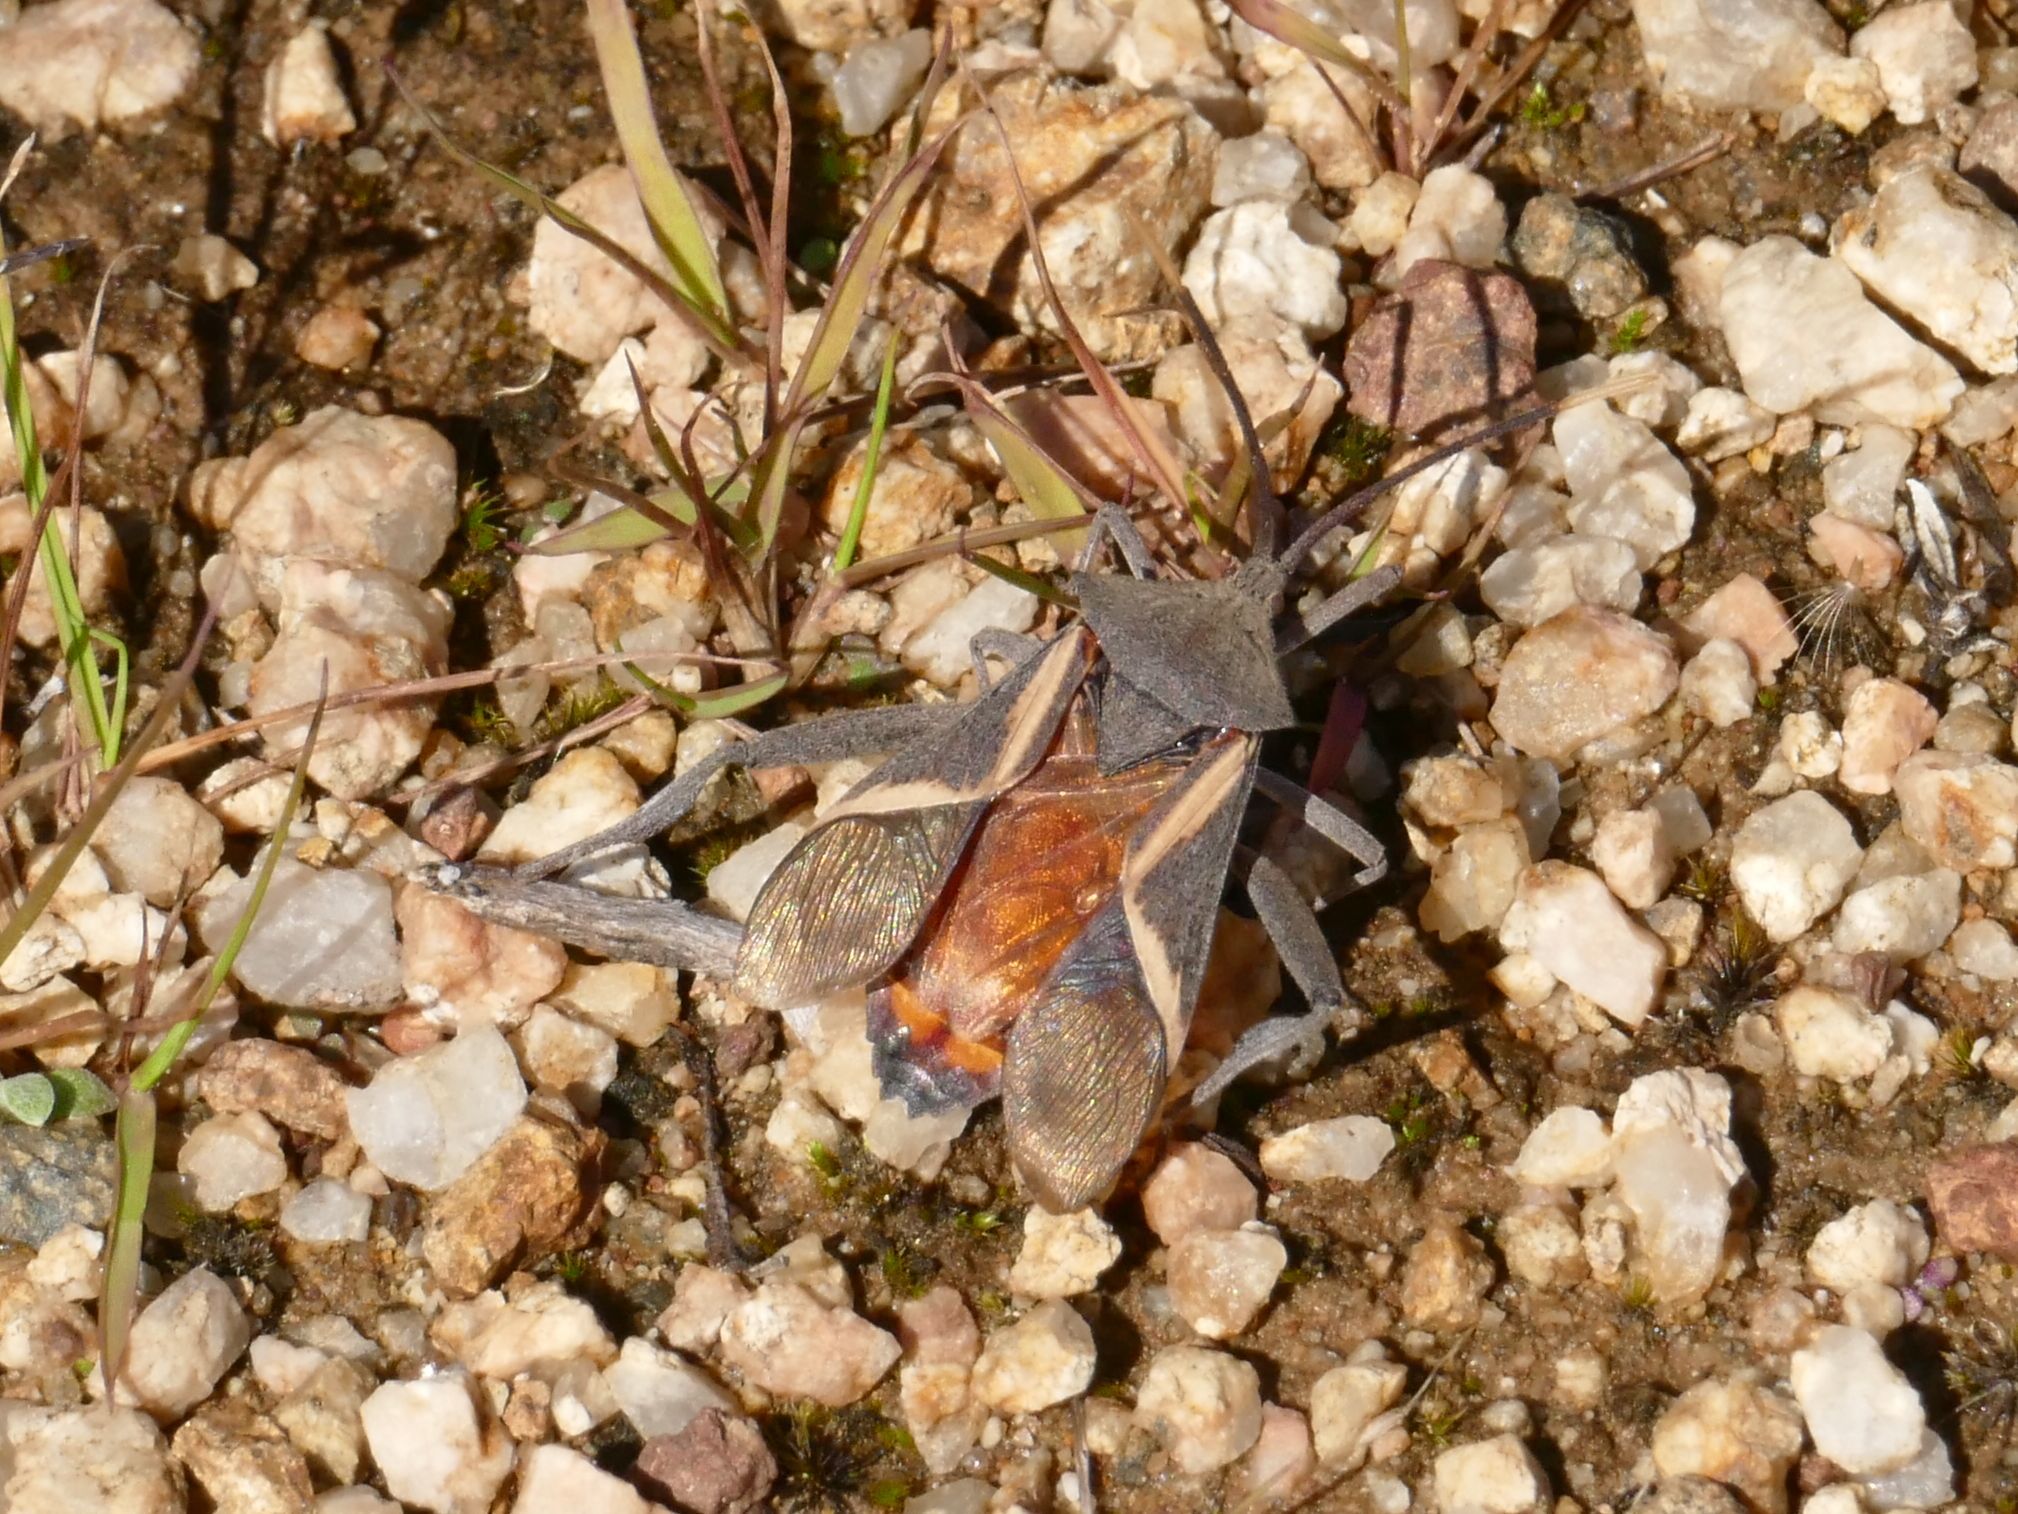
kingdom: Animalia
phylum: Arthropoda
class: Insecta
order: Hemiptera
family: Coreidae
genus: Mictis
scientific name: Mictis profana
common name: Crusader bug
